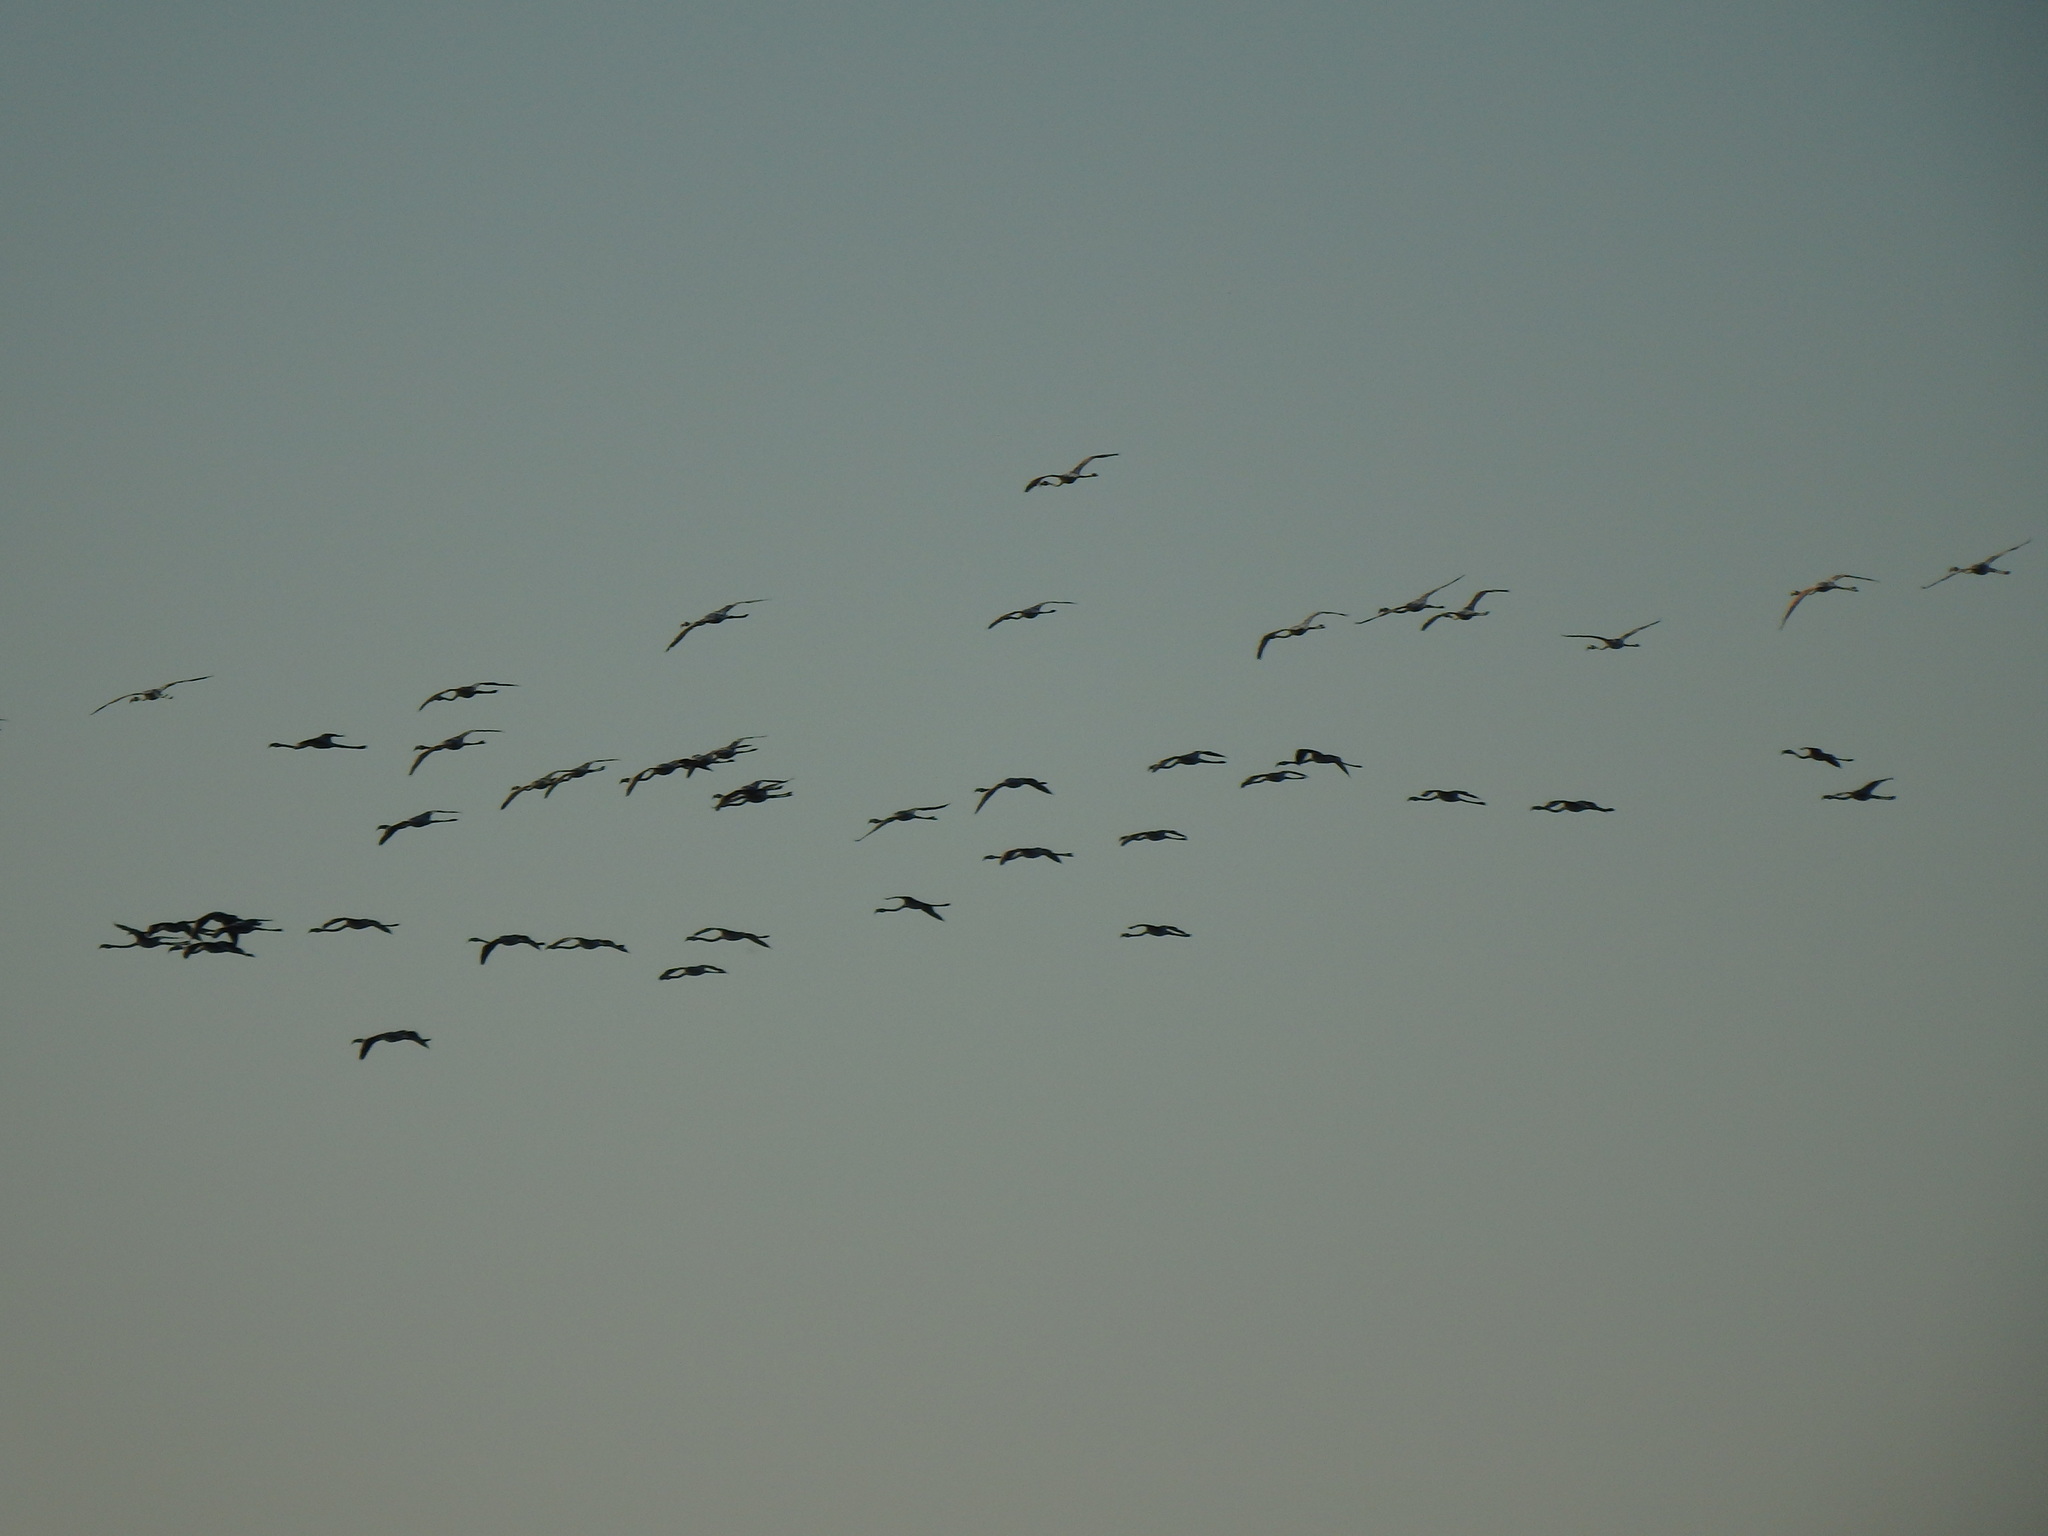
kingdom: Animalia
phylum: Chordata
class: Aves
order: Phoenicopteriformes
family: Phoenicopteridae
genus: Phoenicopterus
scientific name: Phoenicopterus roseus
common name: Greater flamingo
